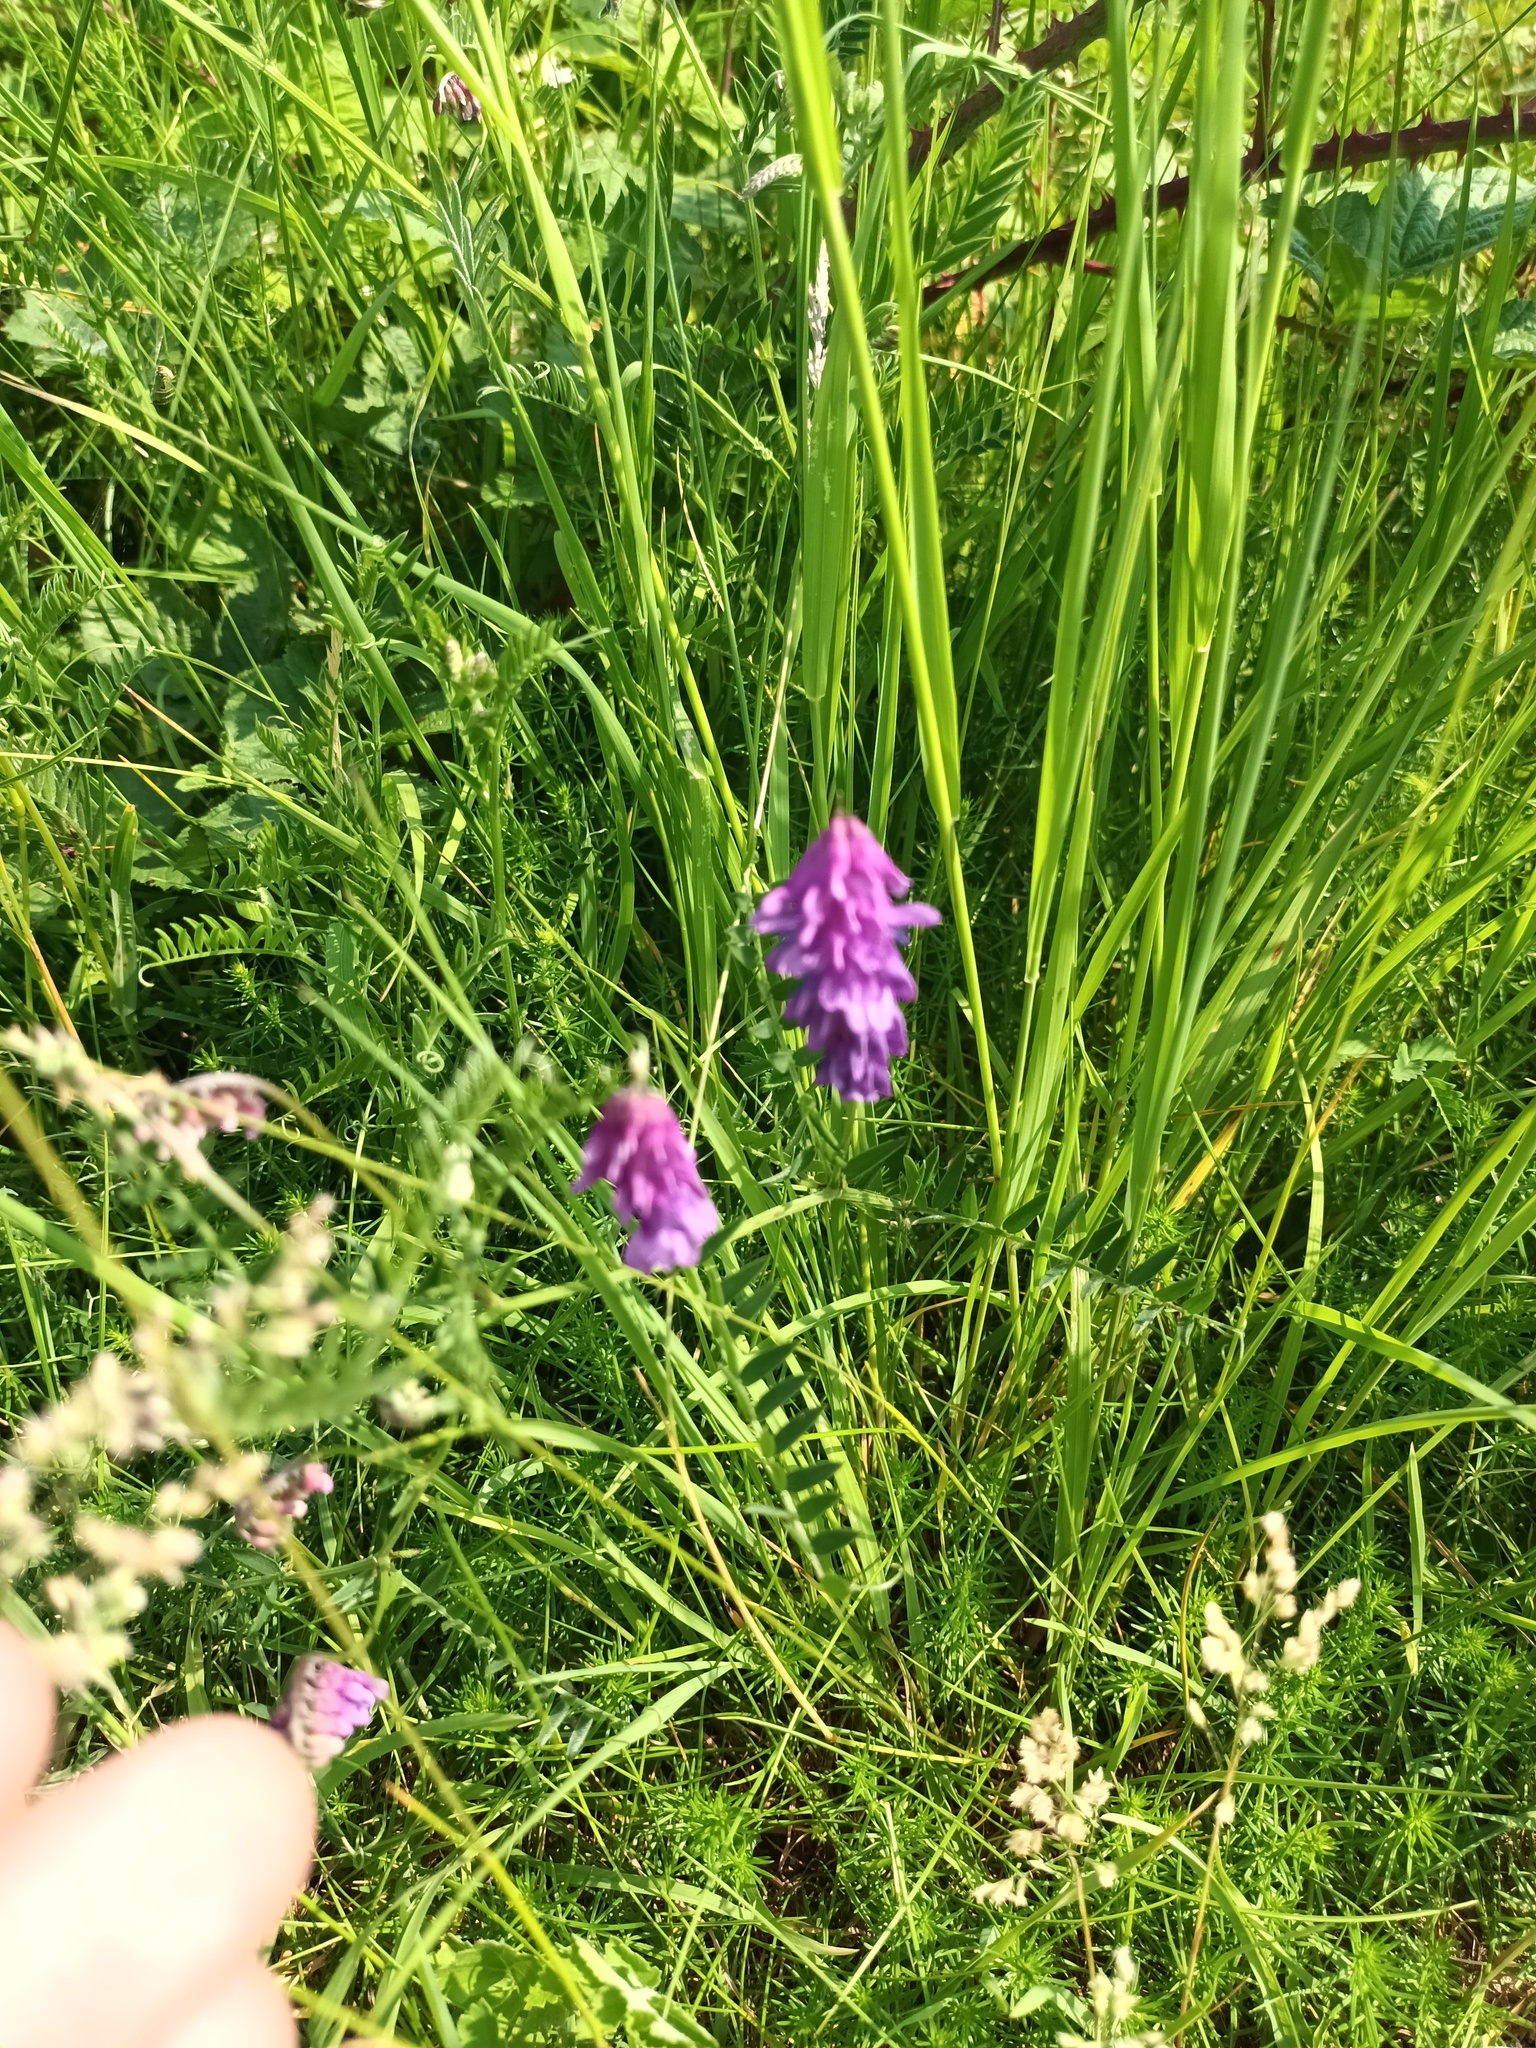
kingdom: Plantae
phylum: Tracheophyta
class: Magnoliopsida
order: Fabales
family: Fabaceae
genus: Vicia
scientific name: Vicia cracca
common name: Bird vetch
